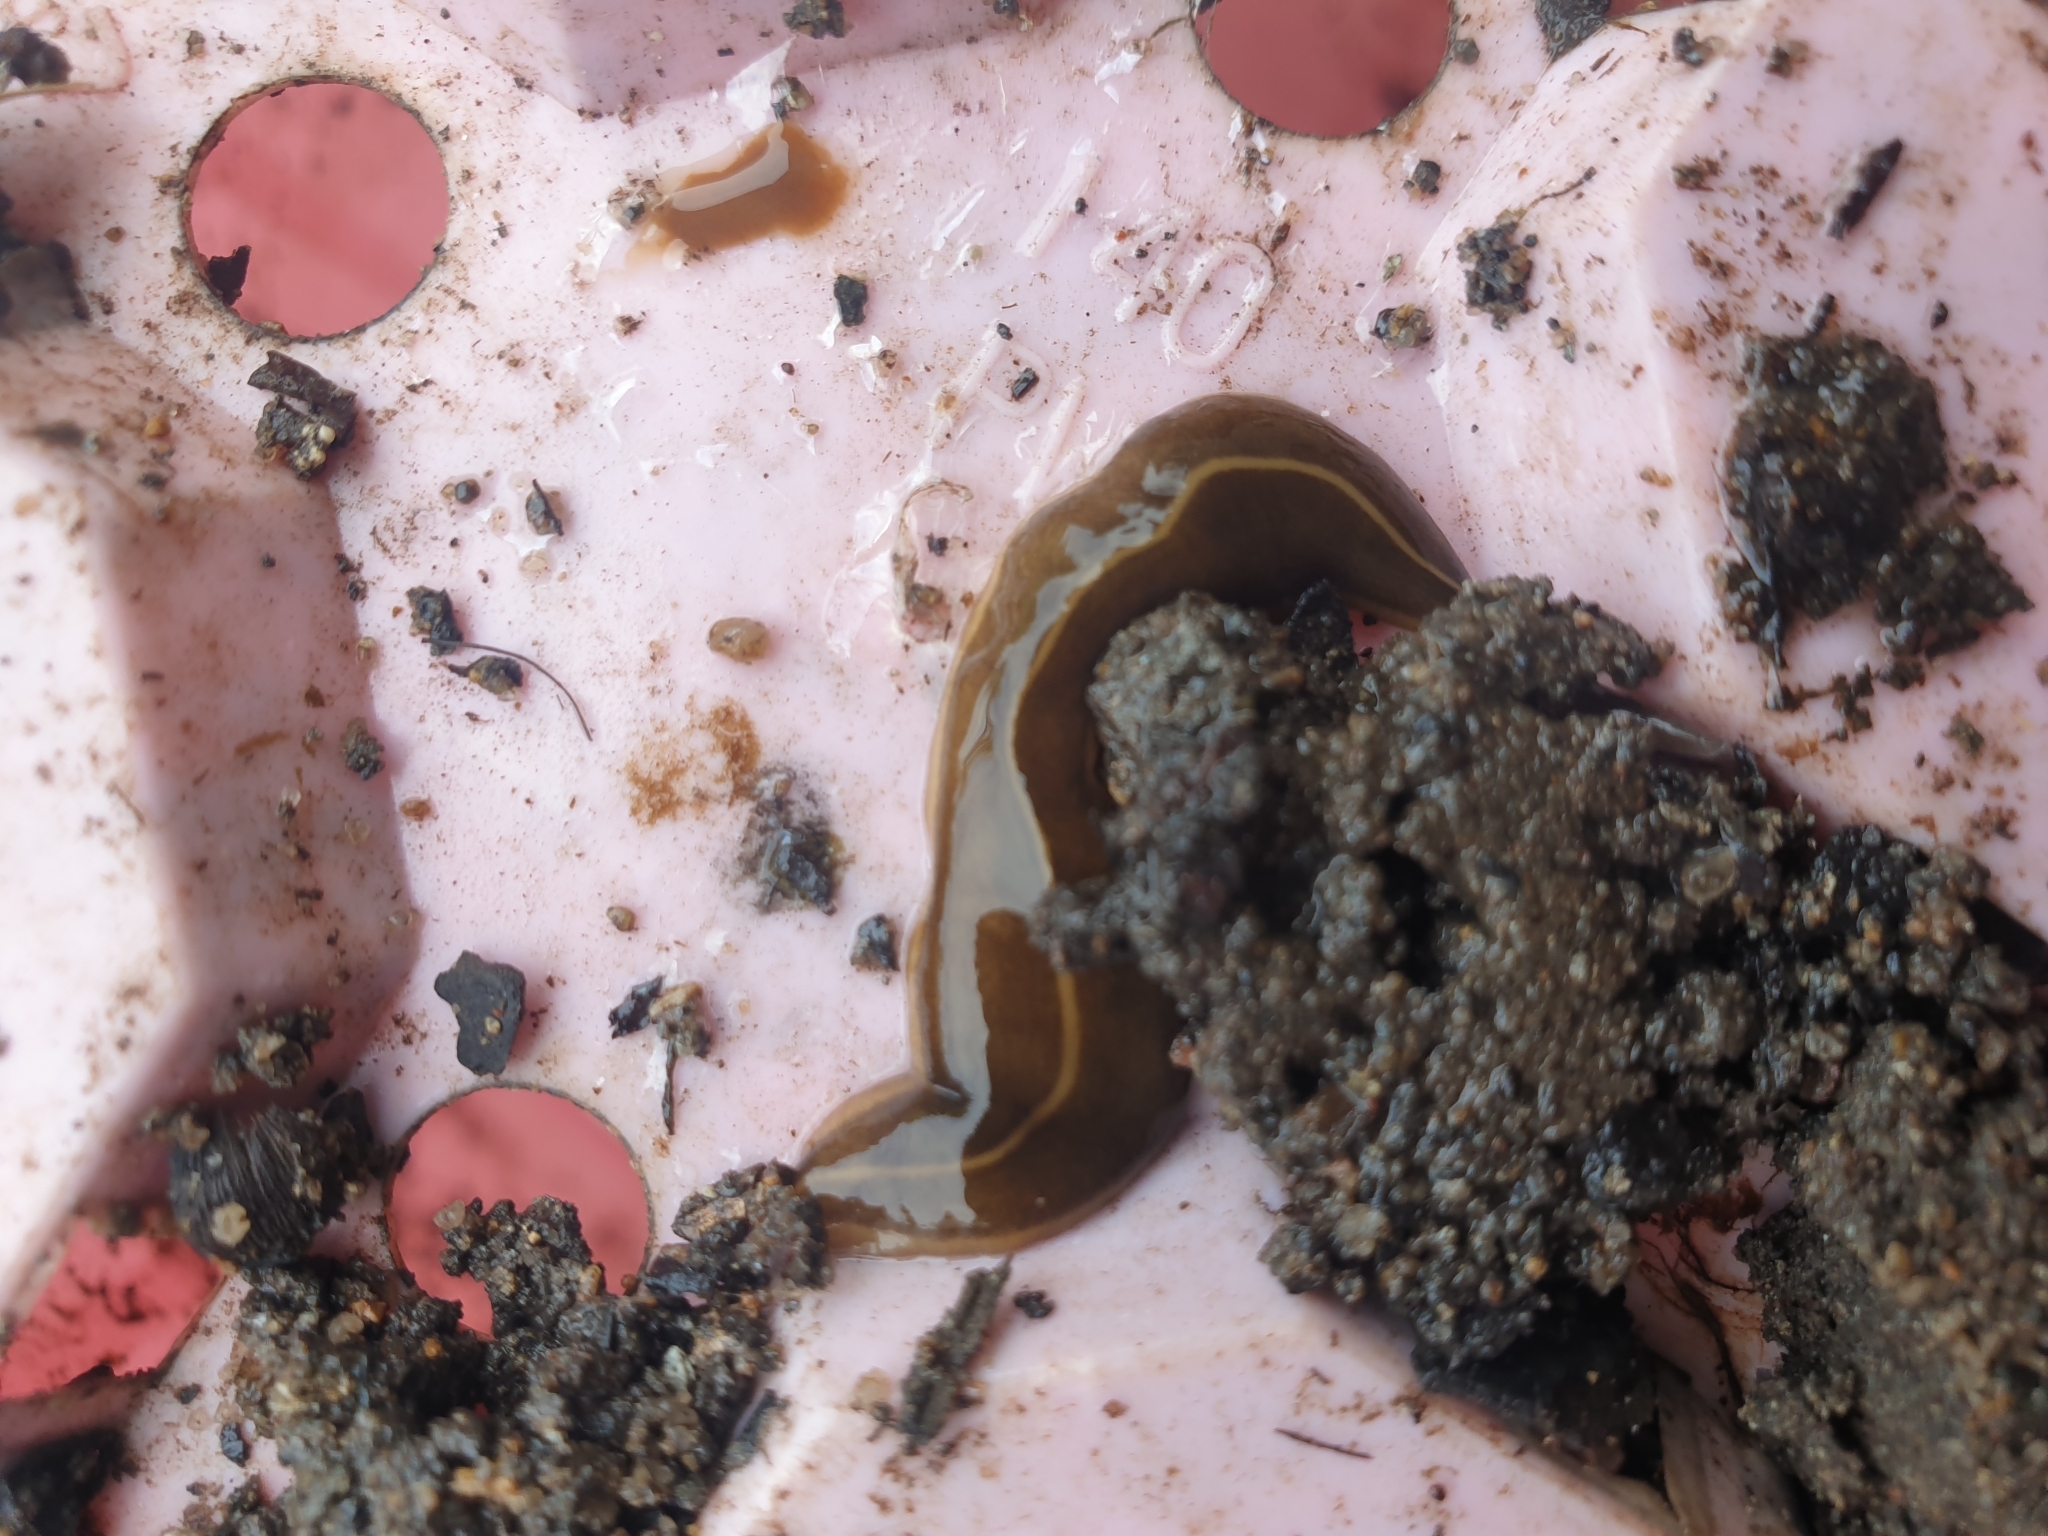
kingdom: Animalia
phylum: Platyhelminthes
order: Tricladida
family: Geoplanidae
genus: Platydemus
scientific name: Platydemus manokwari
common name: New guinea flatworm
